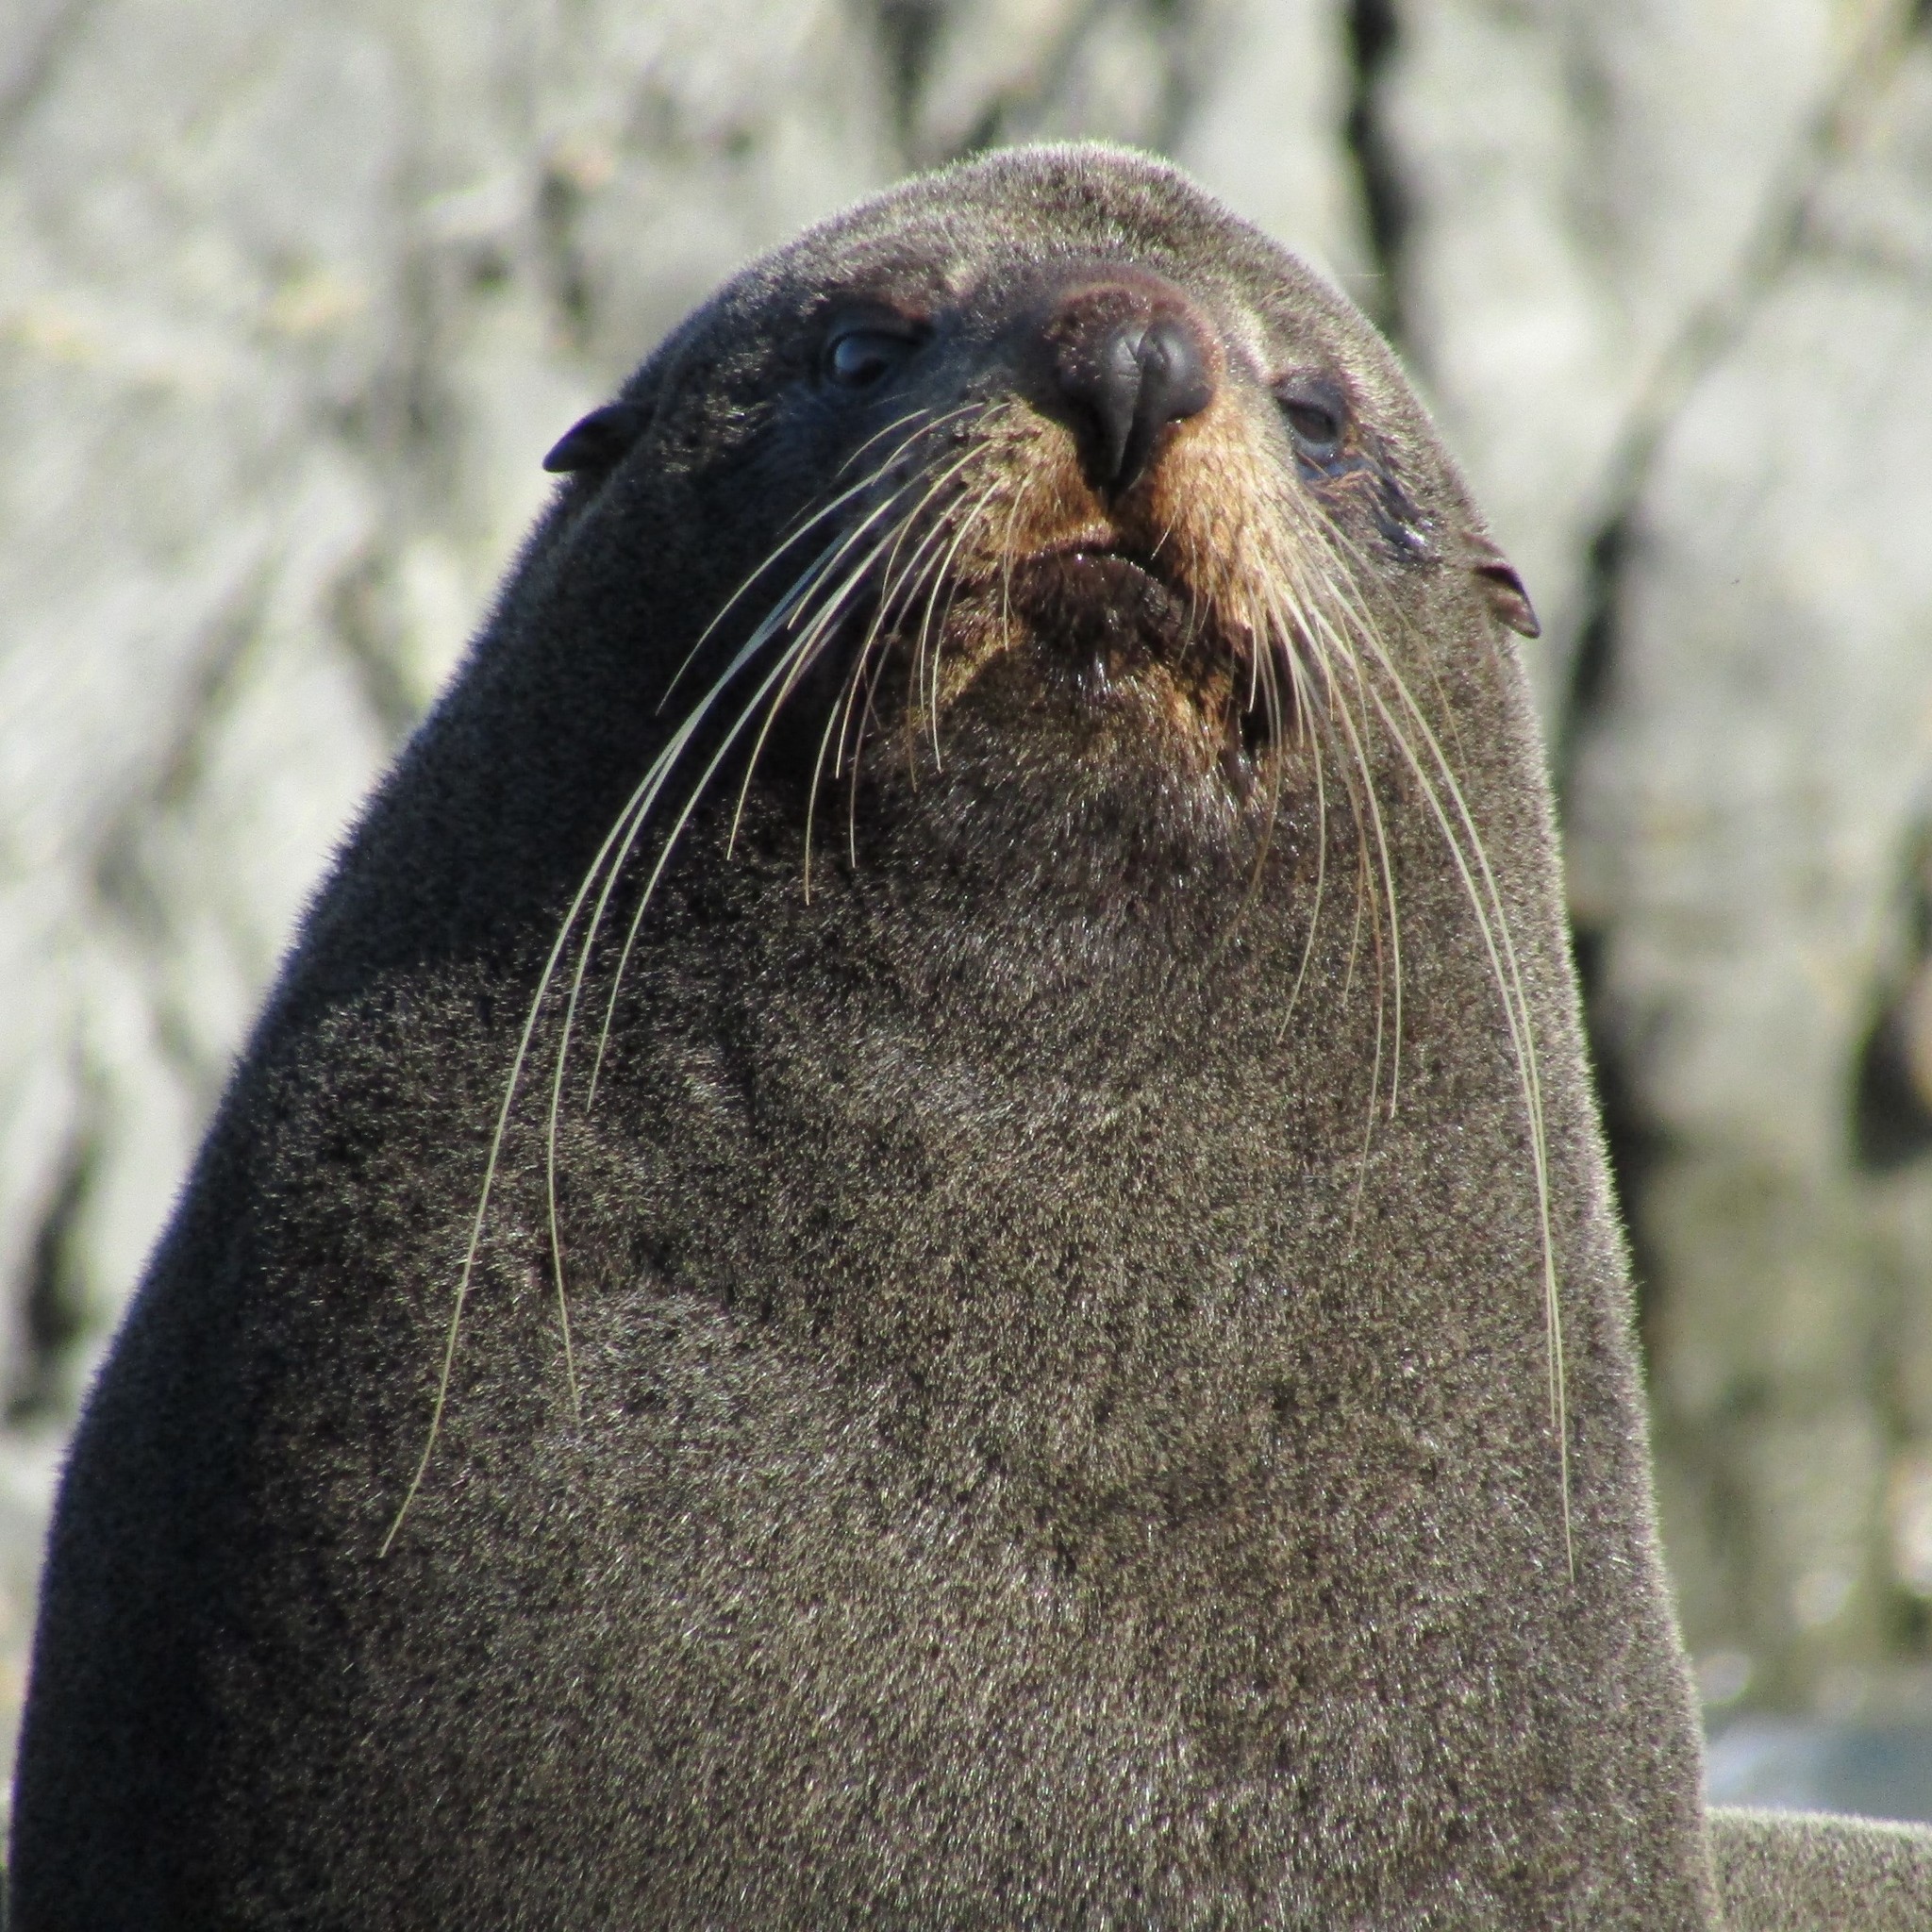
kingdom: Animalia
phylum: Chordata
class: Mammalia
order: Carnivora
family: Otariidae
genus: Arctocephalus
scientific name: Arctocephalus forsteri
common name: New zealand fur seal
